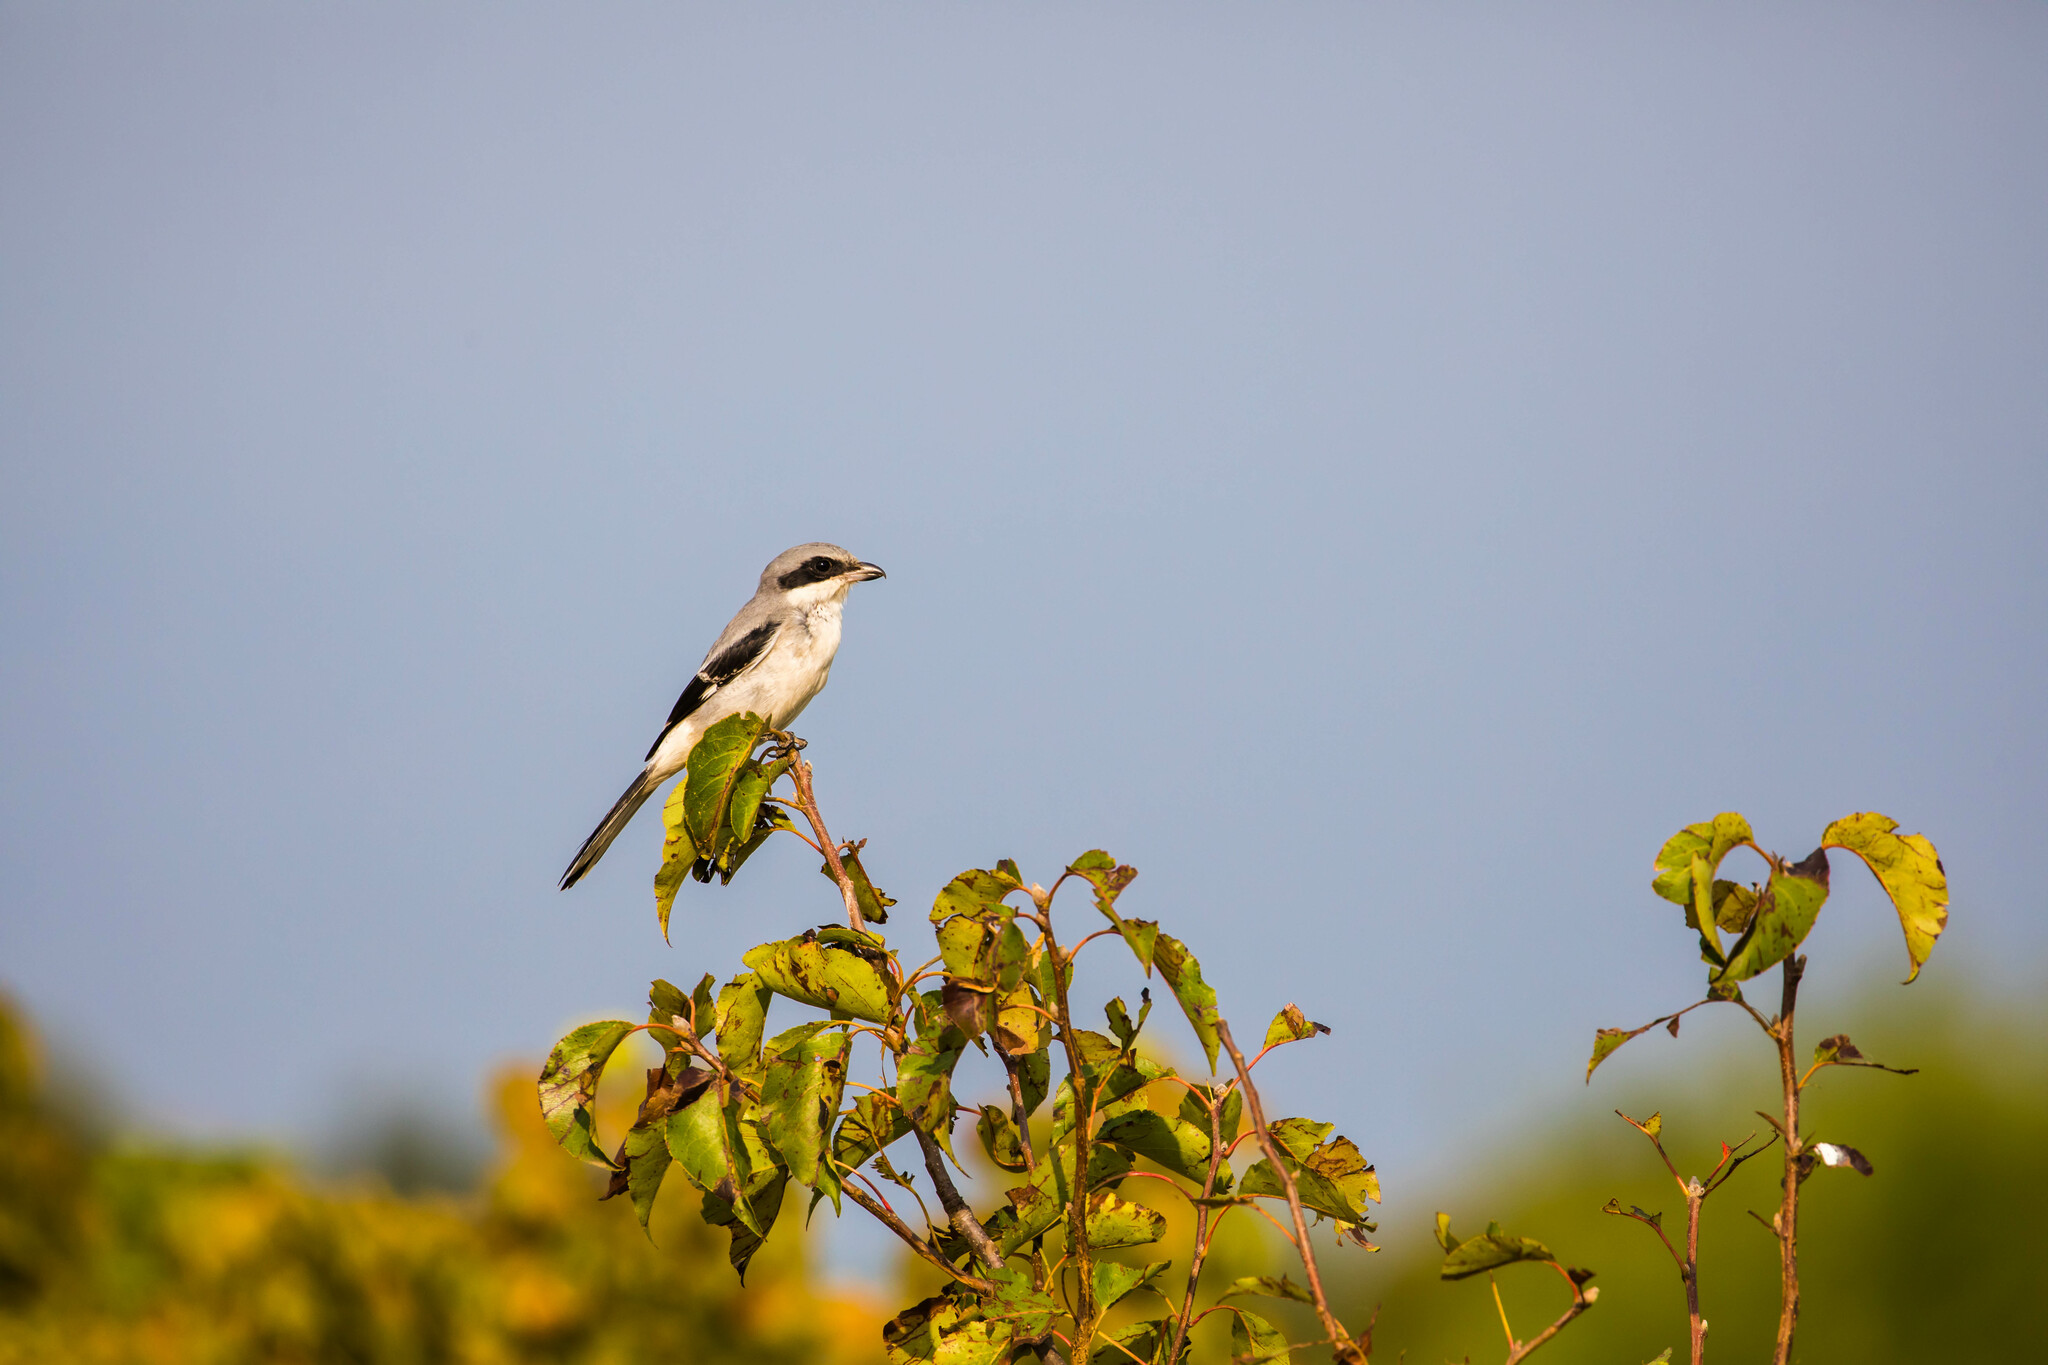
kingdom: Animalia
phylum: Chordata
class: Aves
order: Passeriformes
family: Laniidae
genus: Lanius
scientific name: Lanius ludovicianus
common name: Loggerhead shrike
